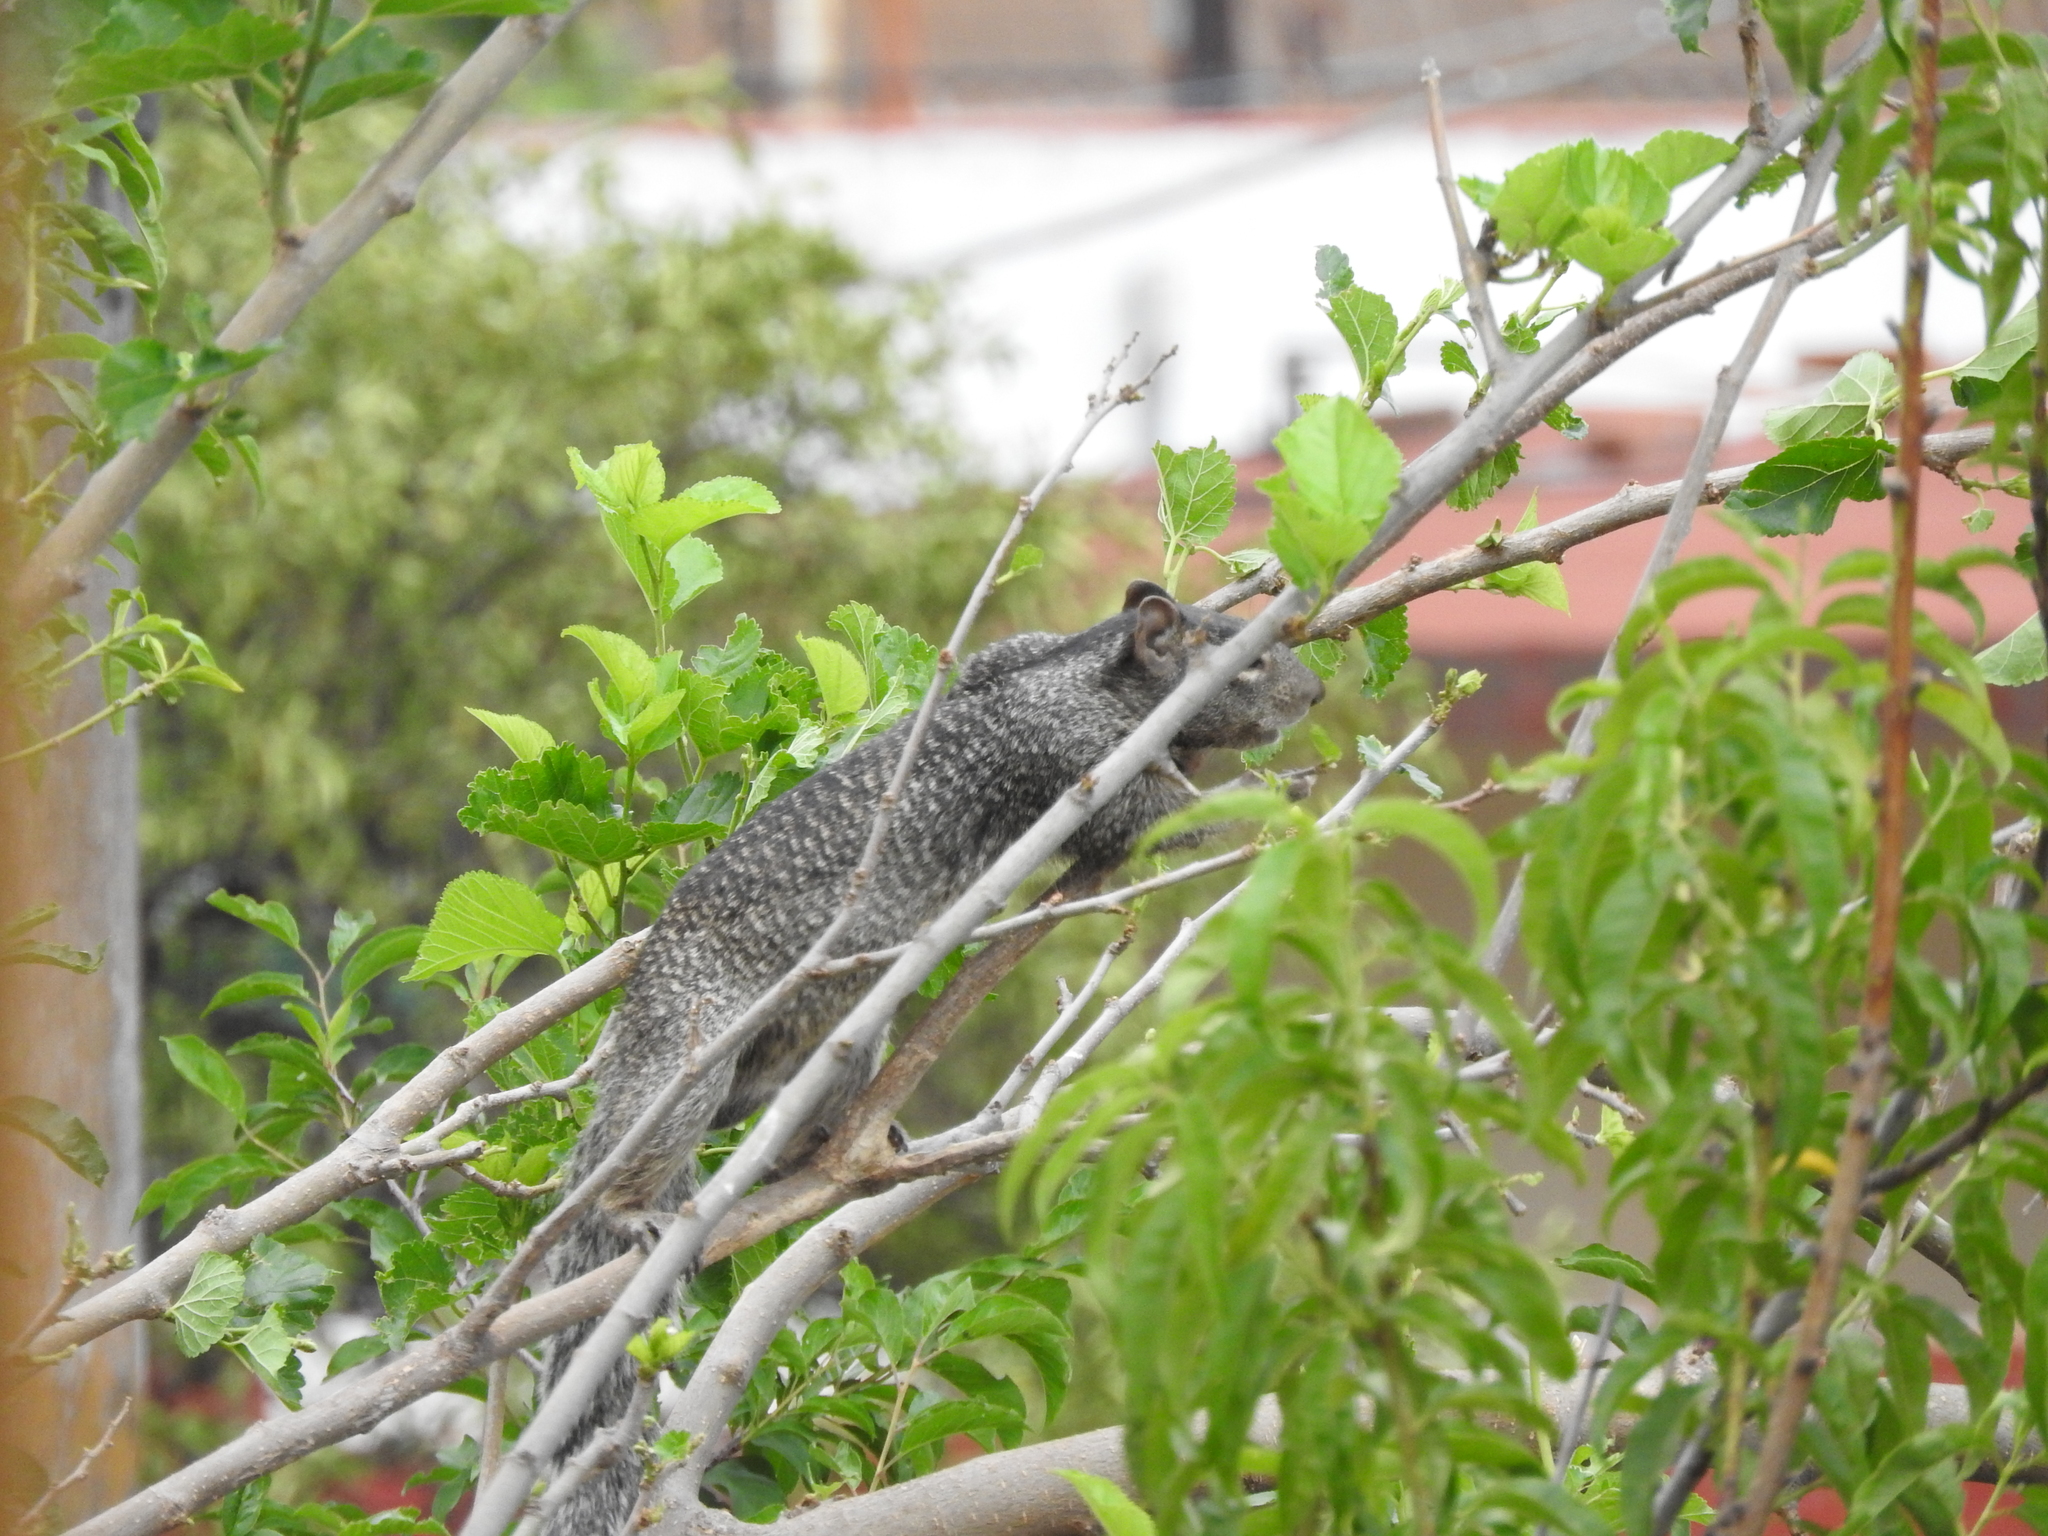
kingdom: Animalia
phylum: Chordata
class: Mammalia
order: Rodentia
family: Sciuridae
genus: Otospermophilus
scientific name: Otospermophilus variegatus
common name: Rock squirrel
